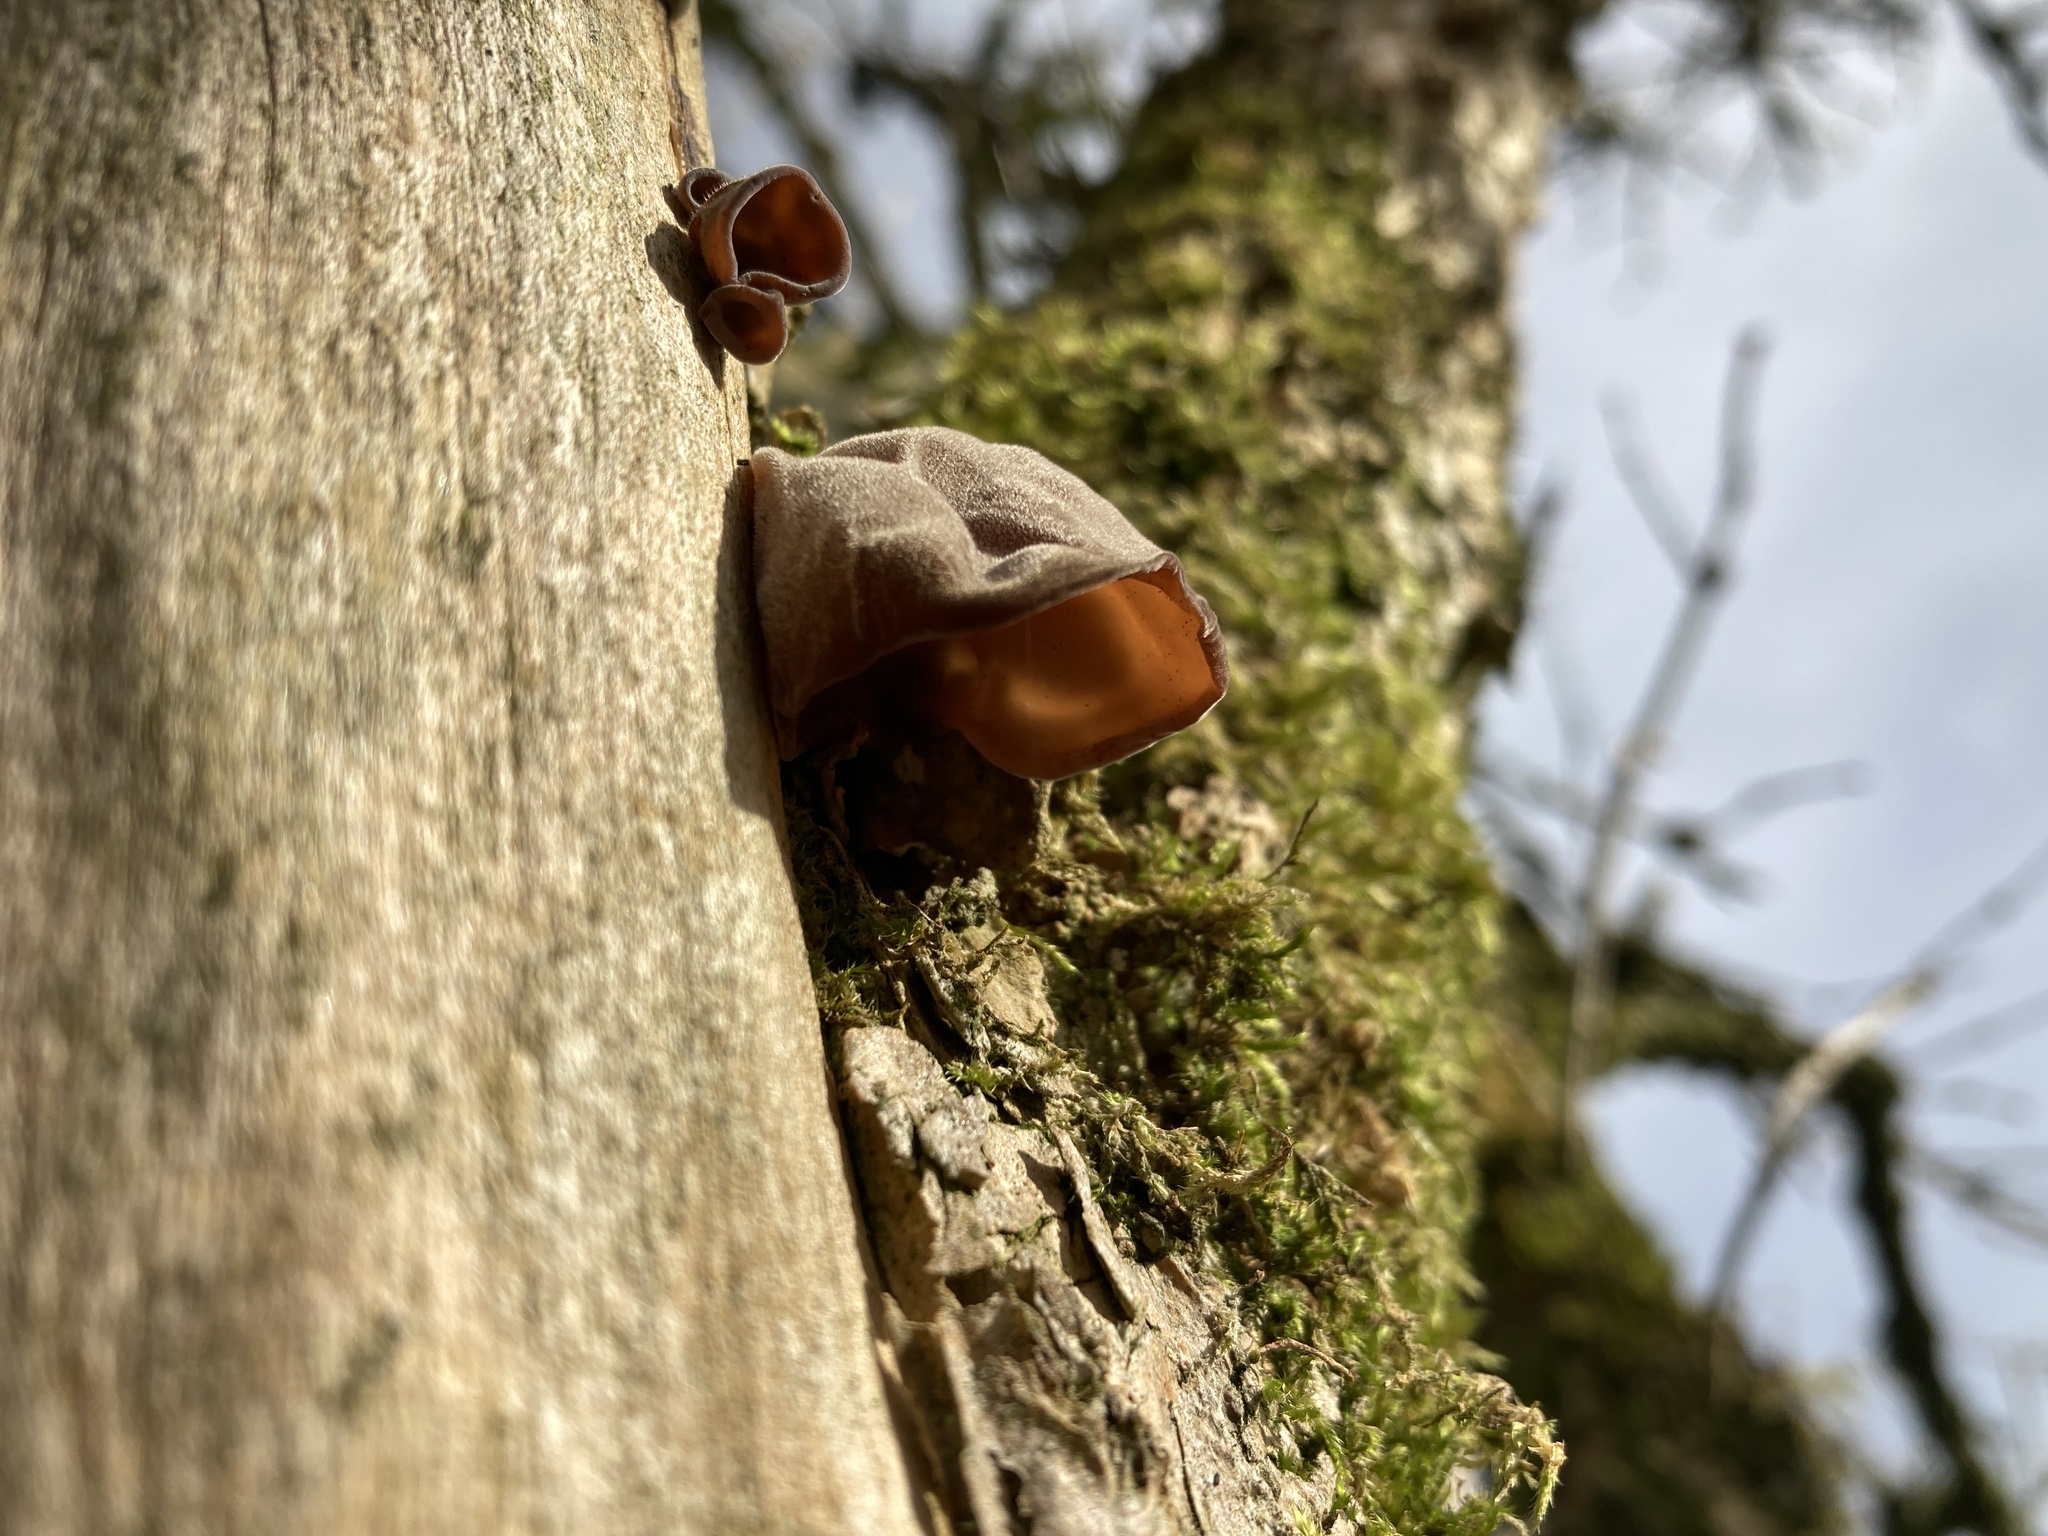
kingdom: Fungi
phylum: Basidiomycota
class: Agaricomycetes
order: Auriculariales
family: Auriculariaceae
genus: Auricularia
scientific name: Auricularia auricula-judae
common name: Jelly ear
